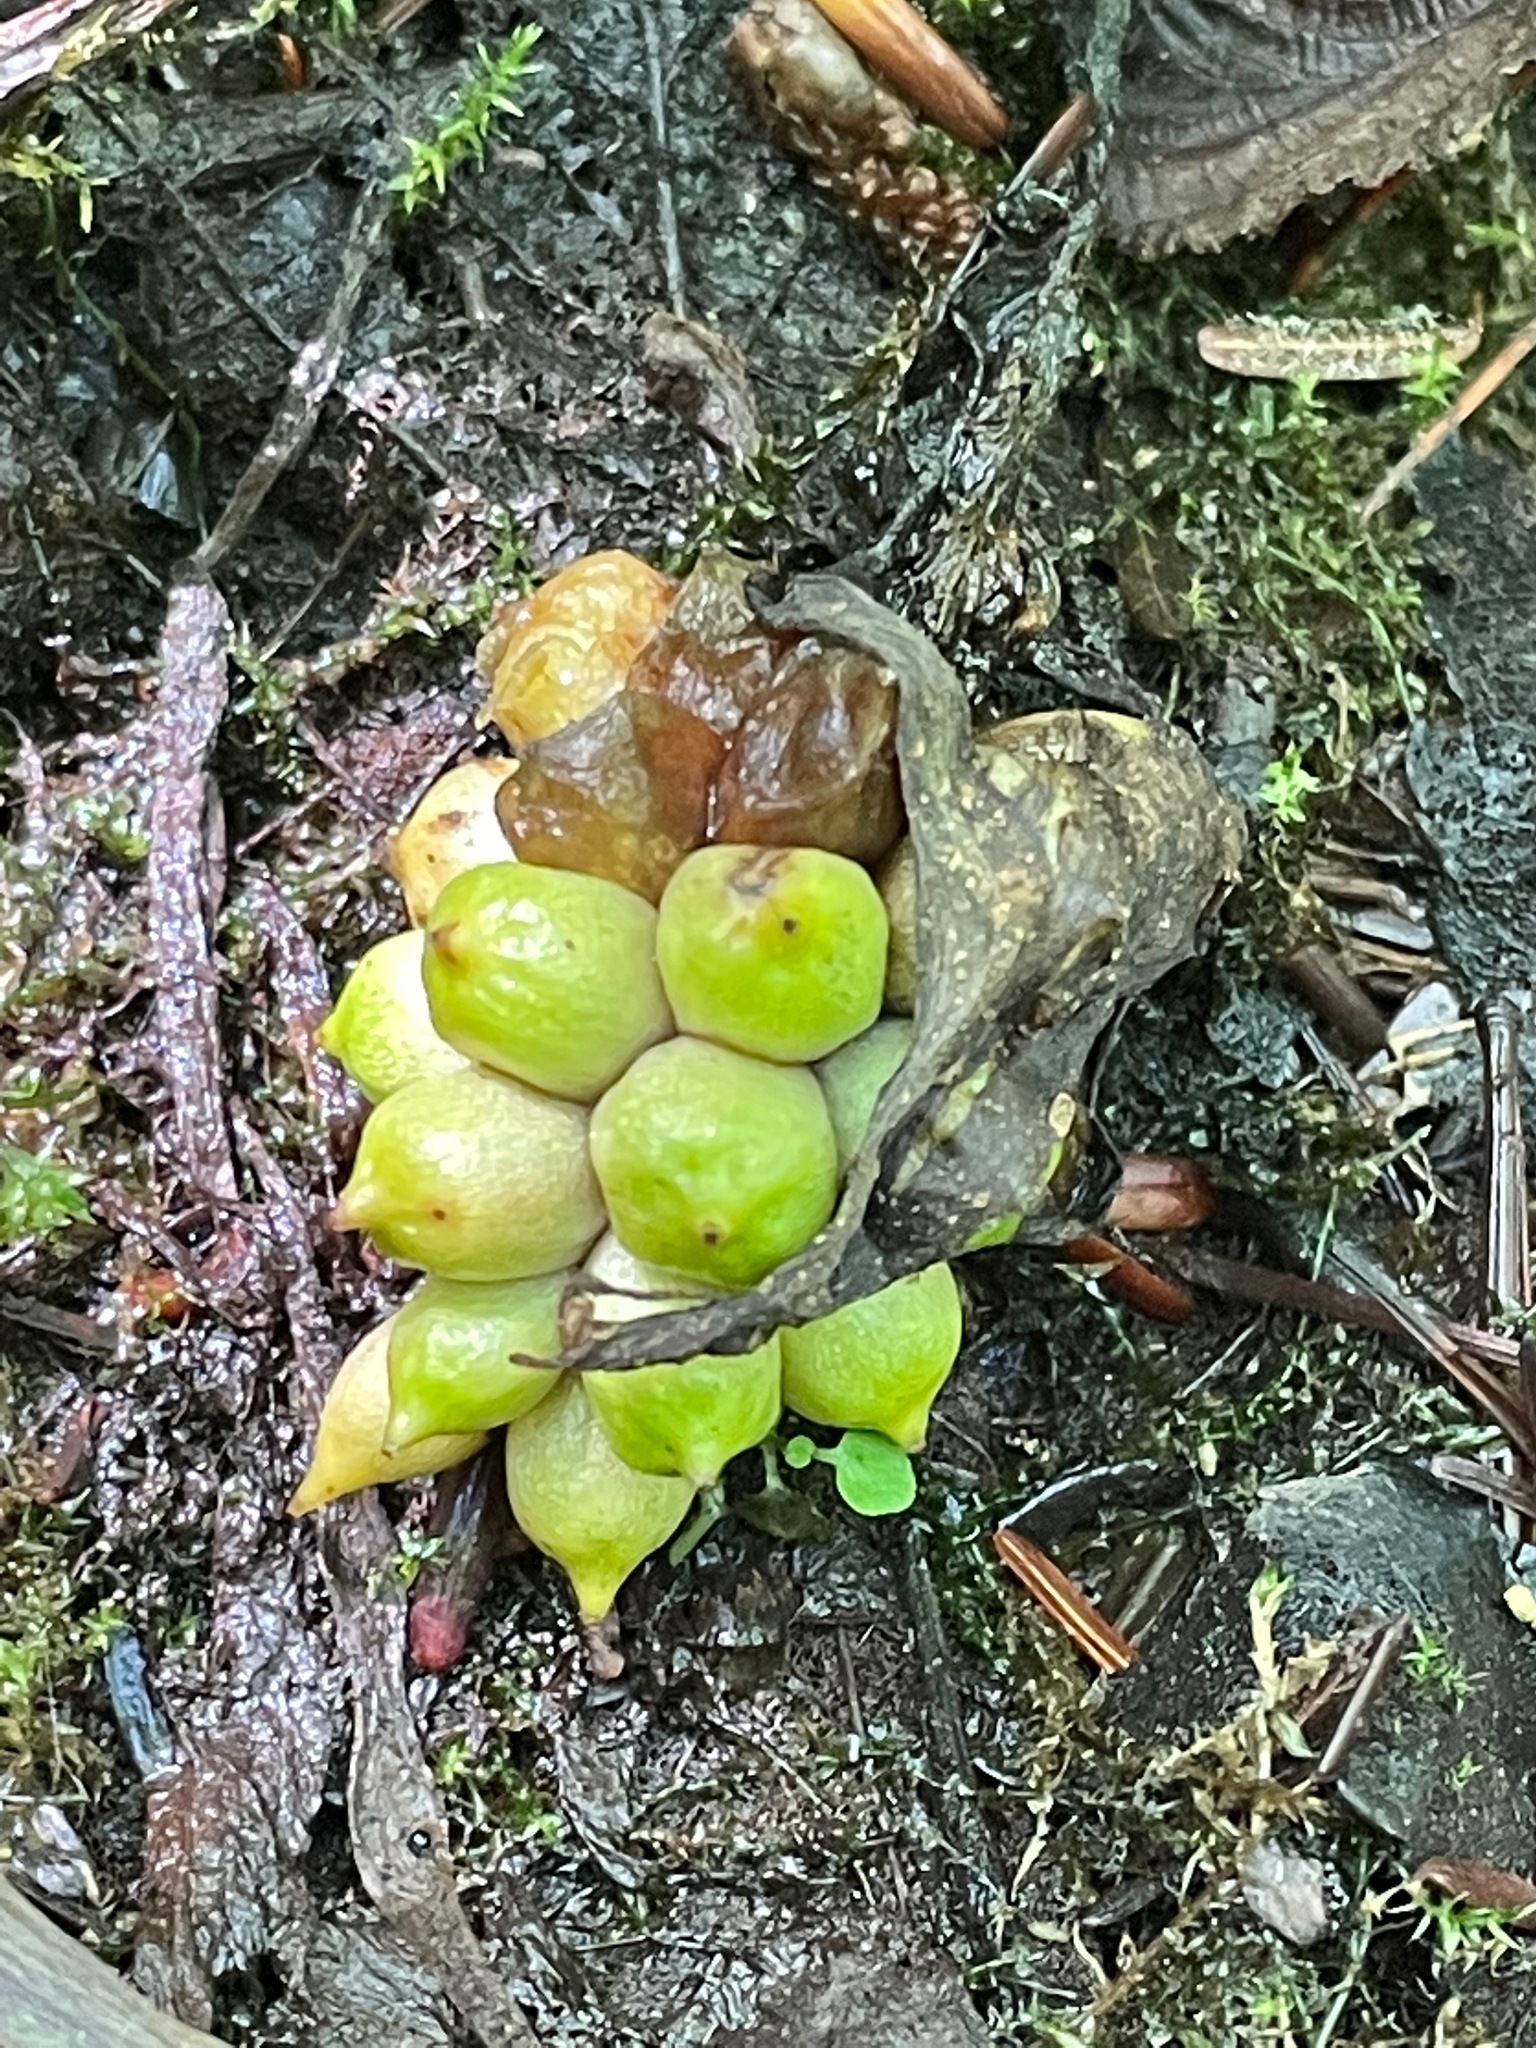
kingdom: Plantae
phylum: Tracheophyta
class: Liliopsida
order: Alismatales
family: Araceae
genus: Calla
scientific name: Calla palustris
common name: Bog arum
